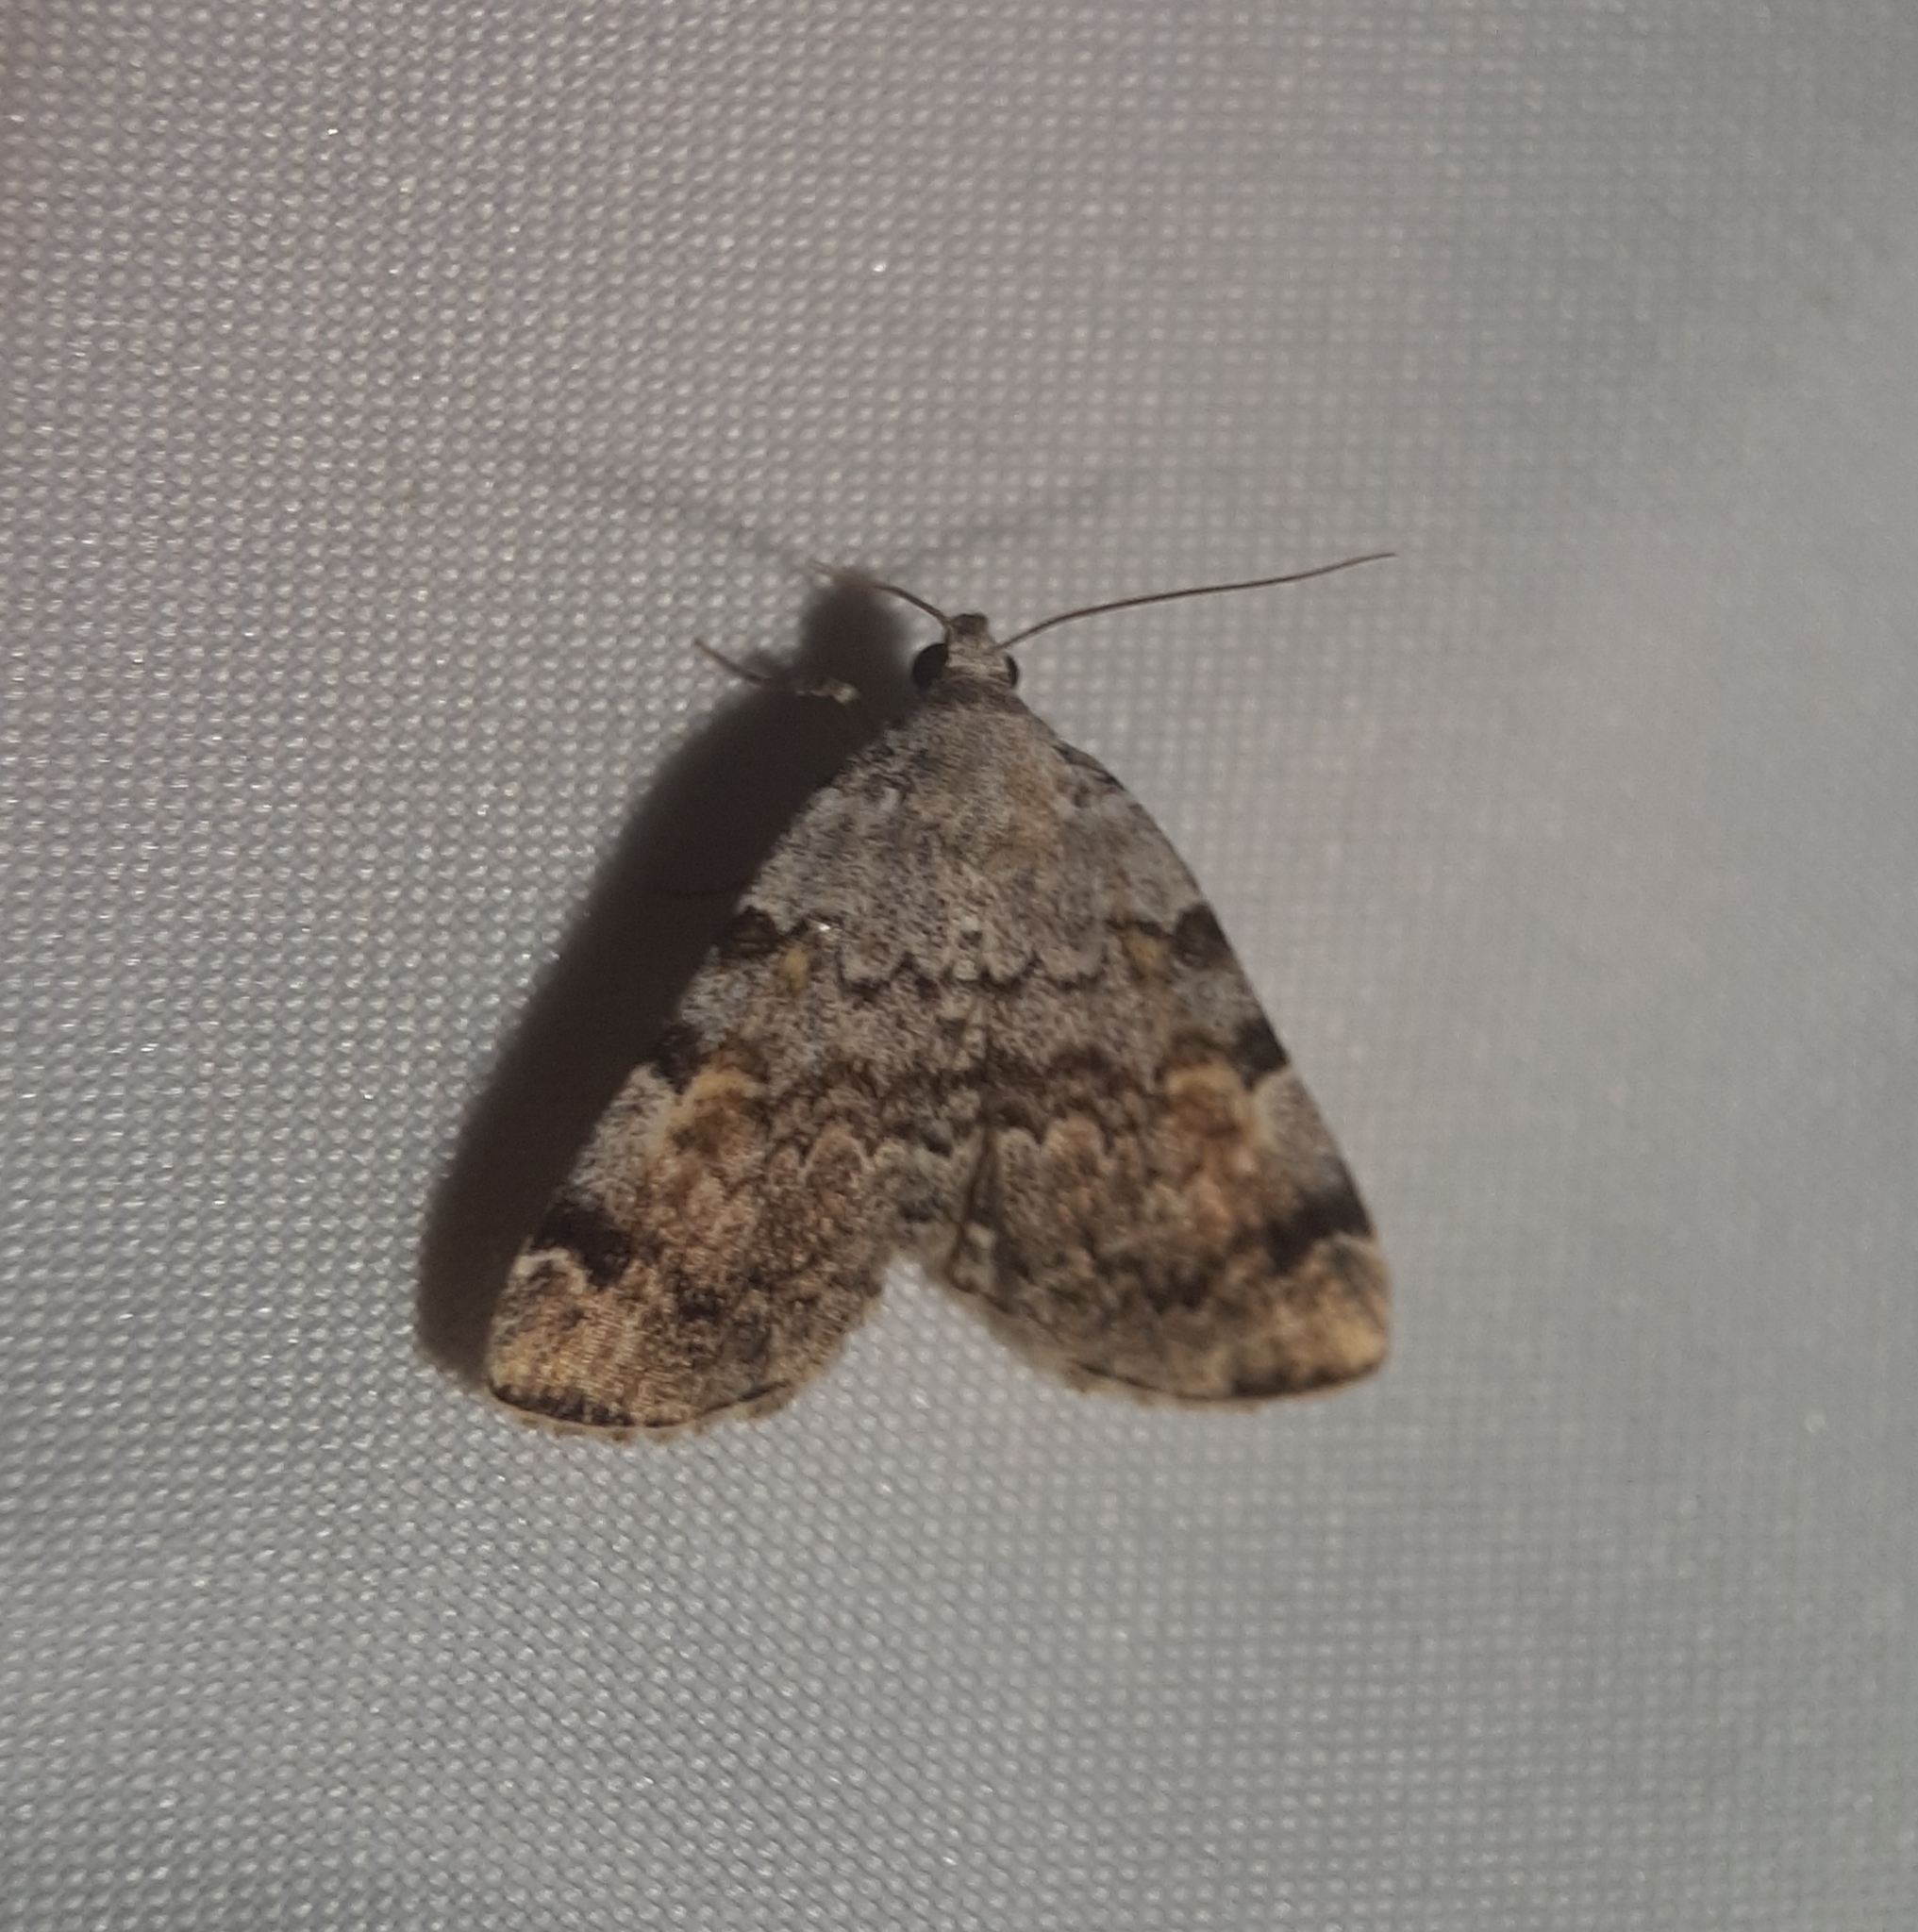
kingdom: Animalia
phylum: Arthropoda
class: Insecta
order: Lepidoptera
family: Erebidae
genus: Idia
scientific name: Idia americalis
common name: American idia moth
